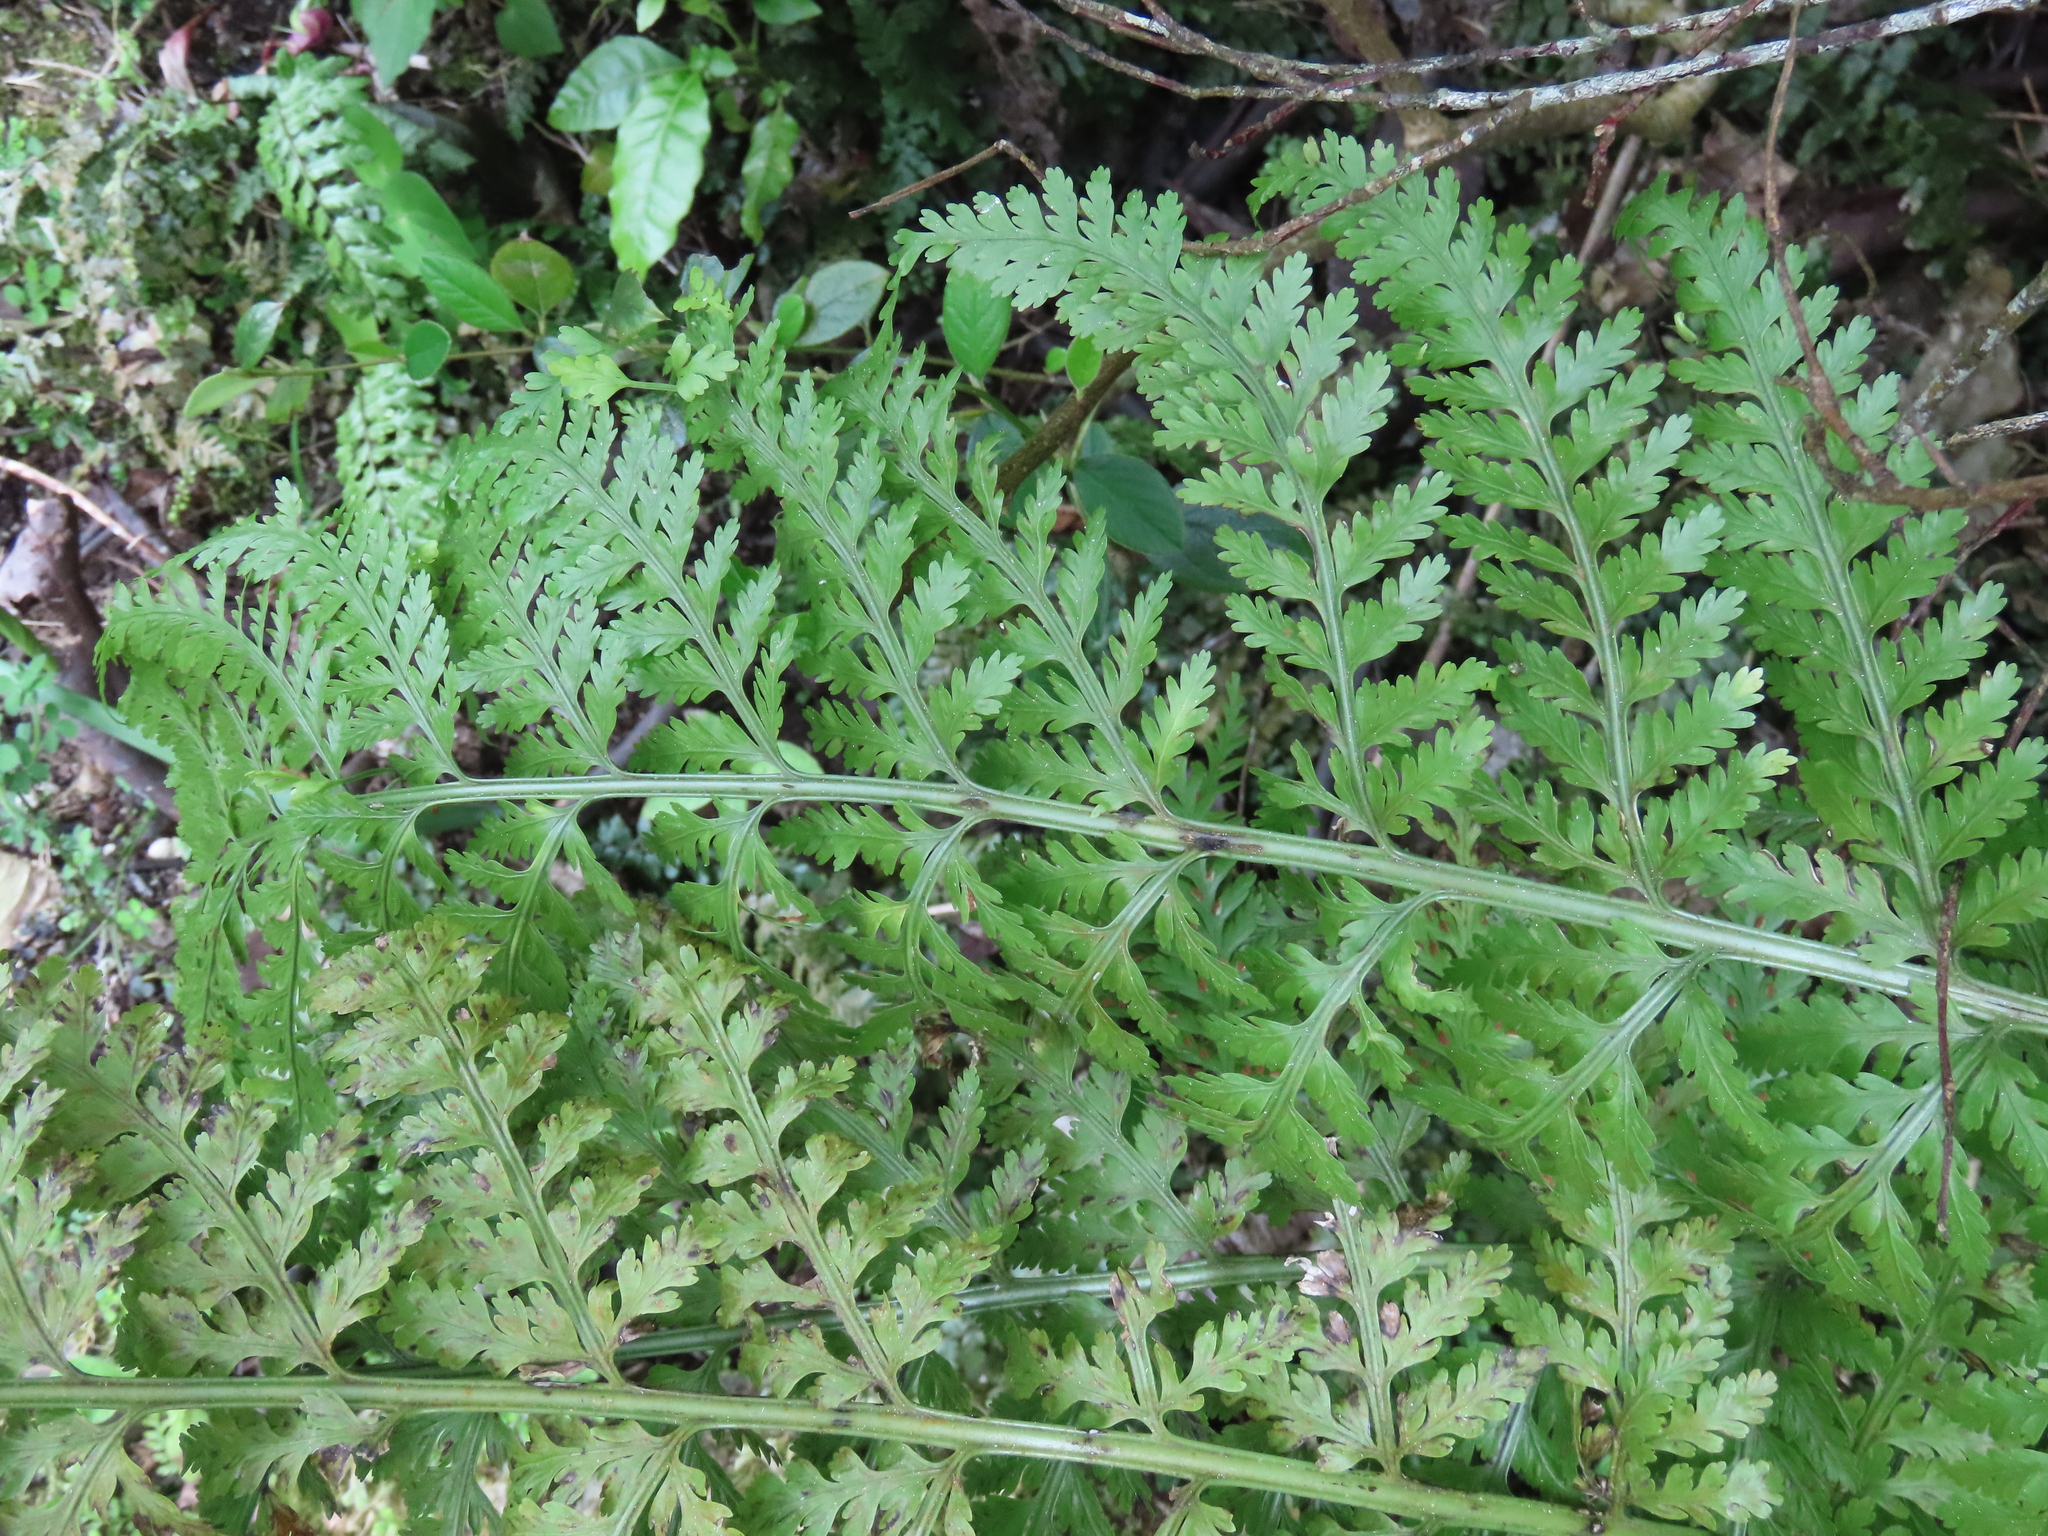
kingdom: Plantae
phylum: Tracheophyta
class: Polypodiopsida
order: Polypodiales
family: Aspleniaceae
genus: Asplenium
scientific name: Asplenium bulbiferum
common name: Mother fern
